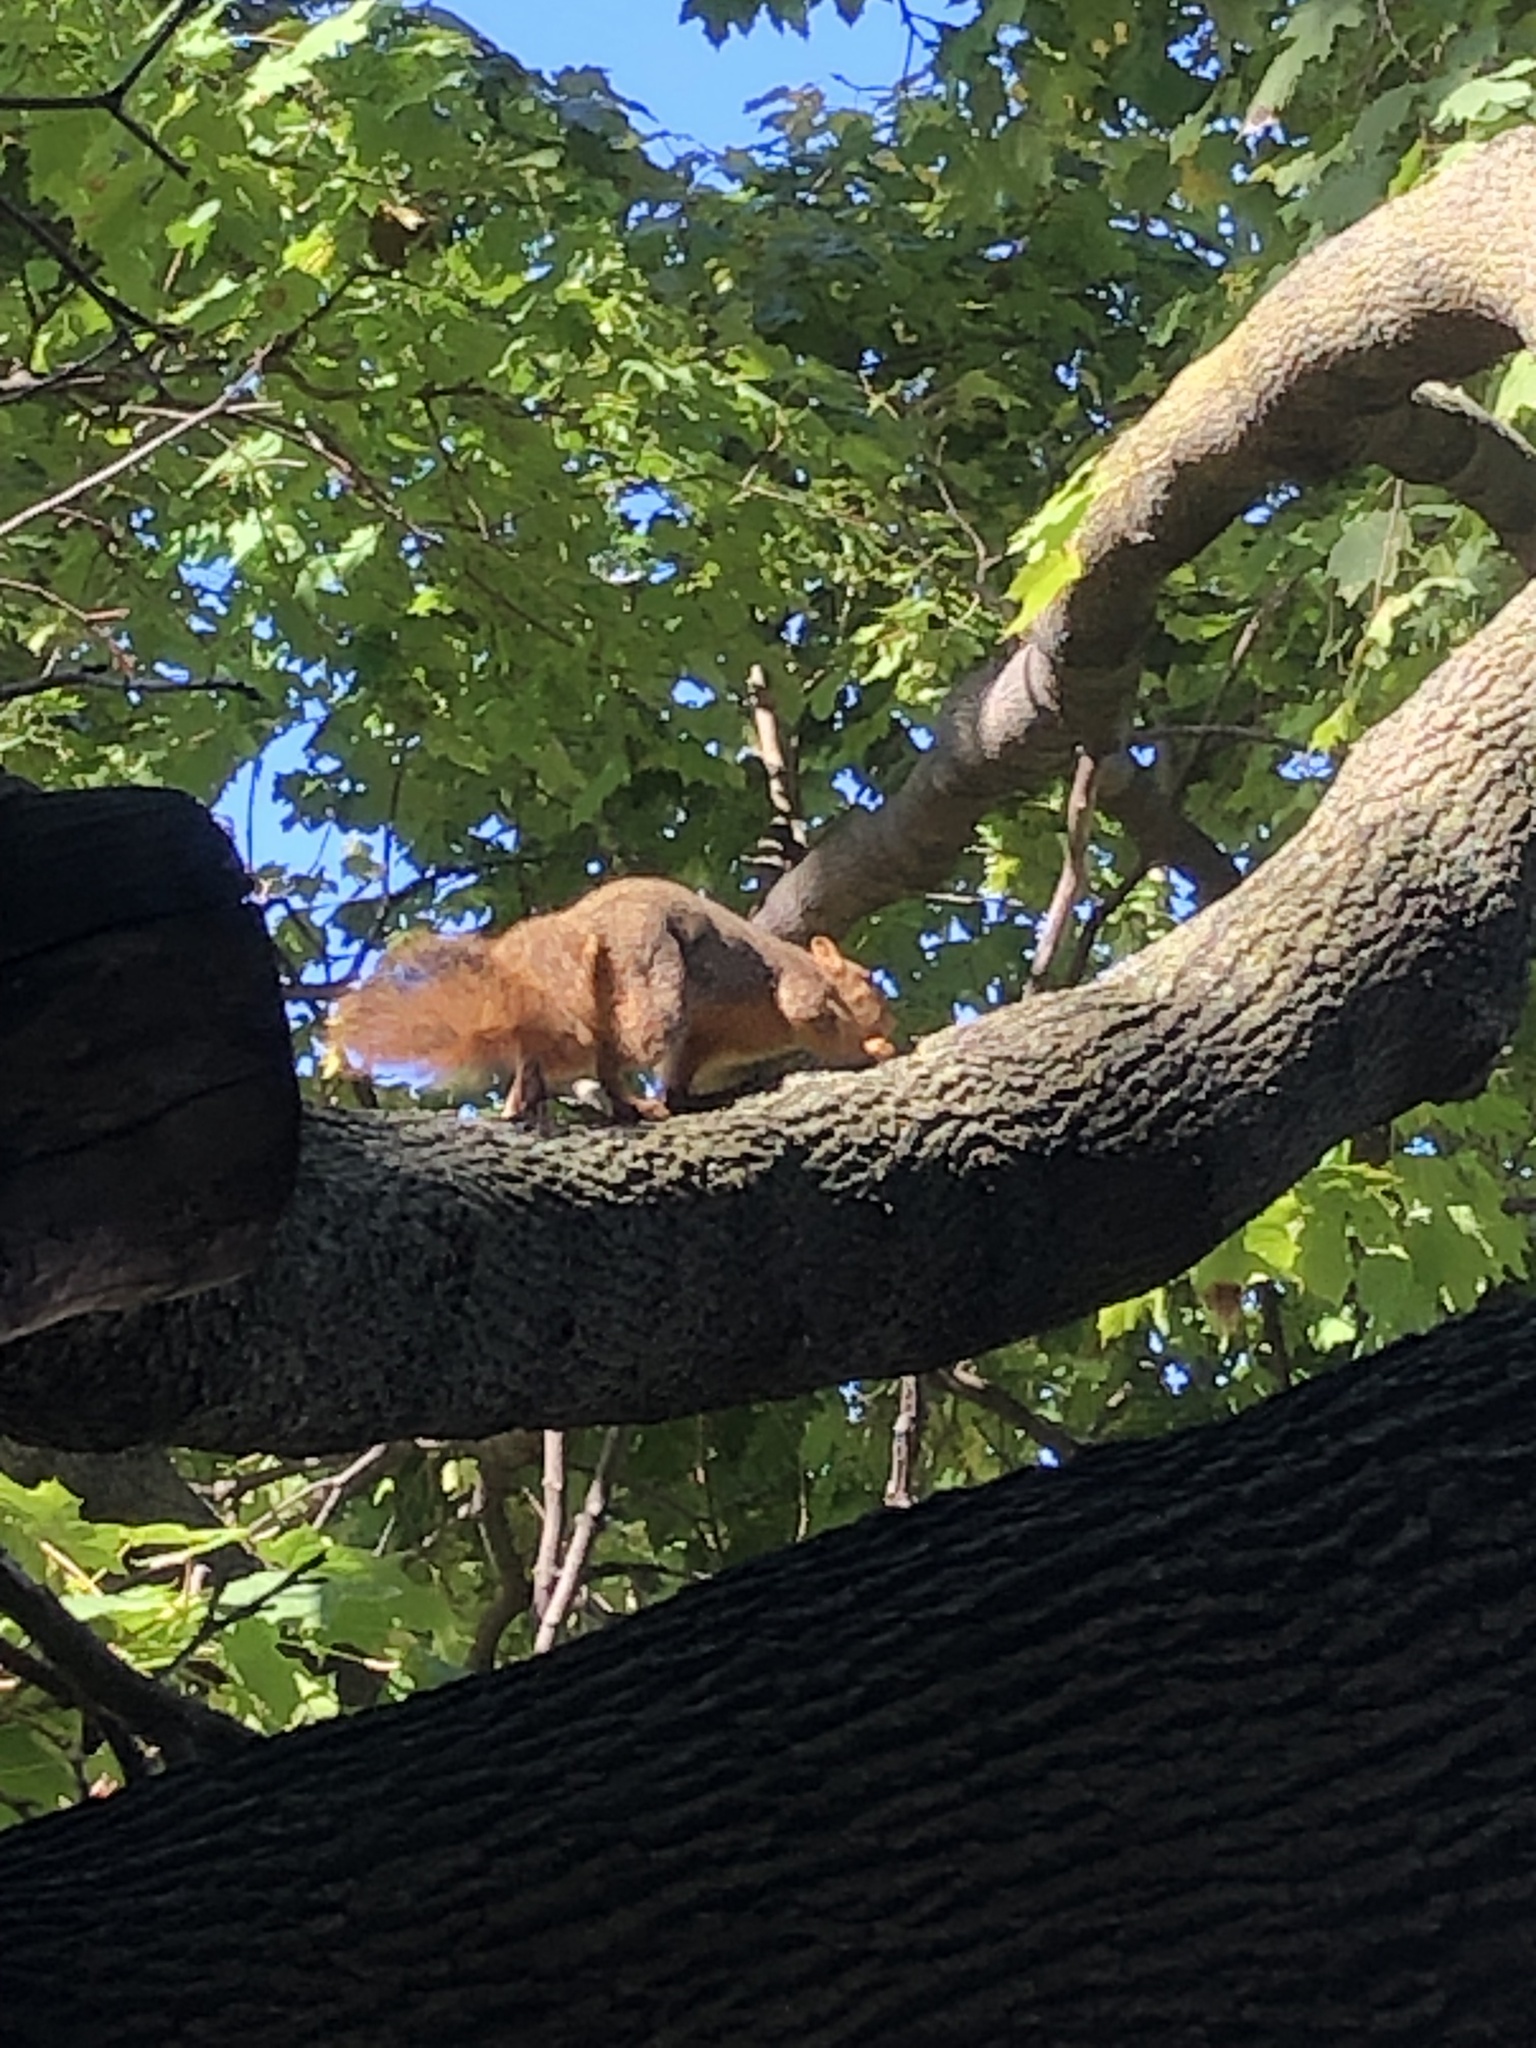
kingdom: Animalia
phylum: Chordata
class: Mammalia
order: Rodentia
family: Sciuridae
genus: Sciurus
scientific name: Sciurus niger
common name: Fox squirrel
